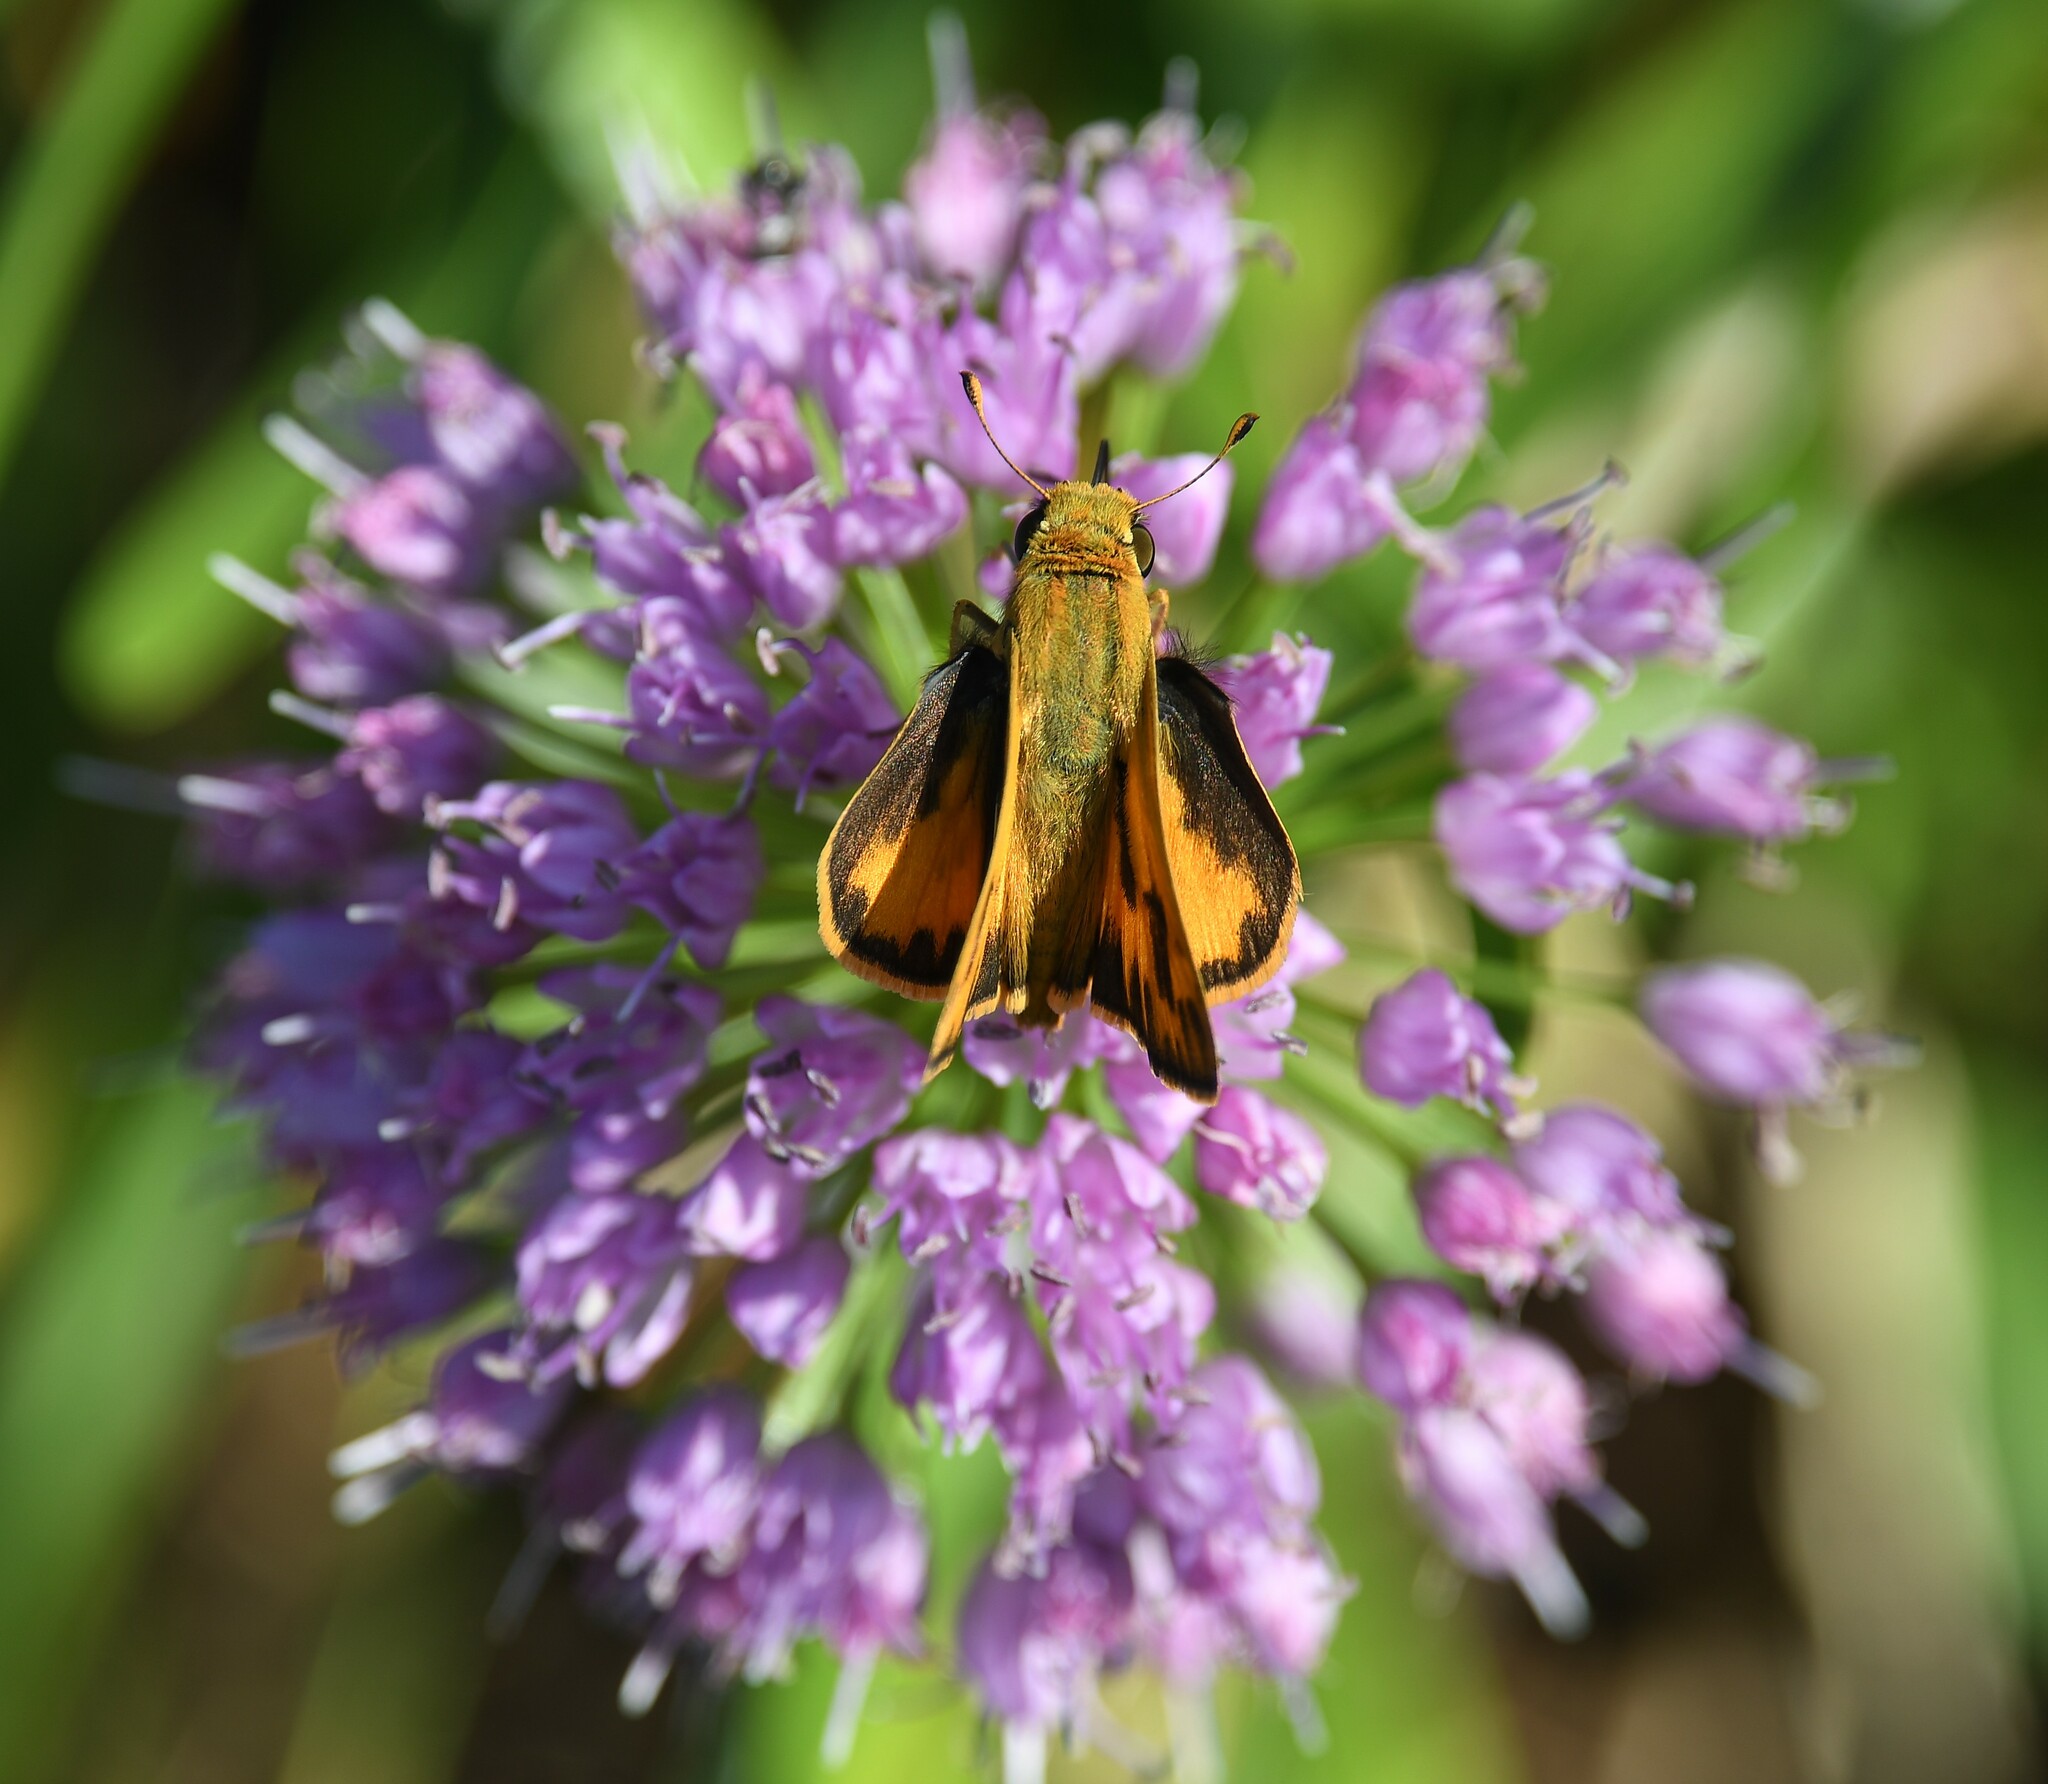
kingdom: Animalia
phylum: Arthropoda
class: Insecta
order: Lepidoptera
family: Hesperiidae
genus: Hylephila
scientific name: Hylephila phyleus
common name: Fiery skipper
